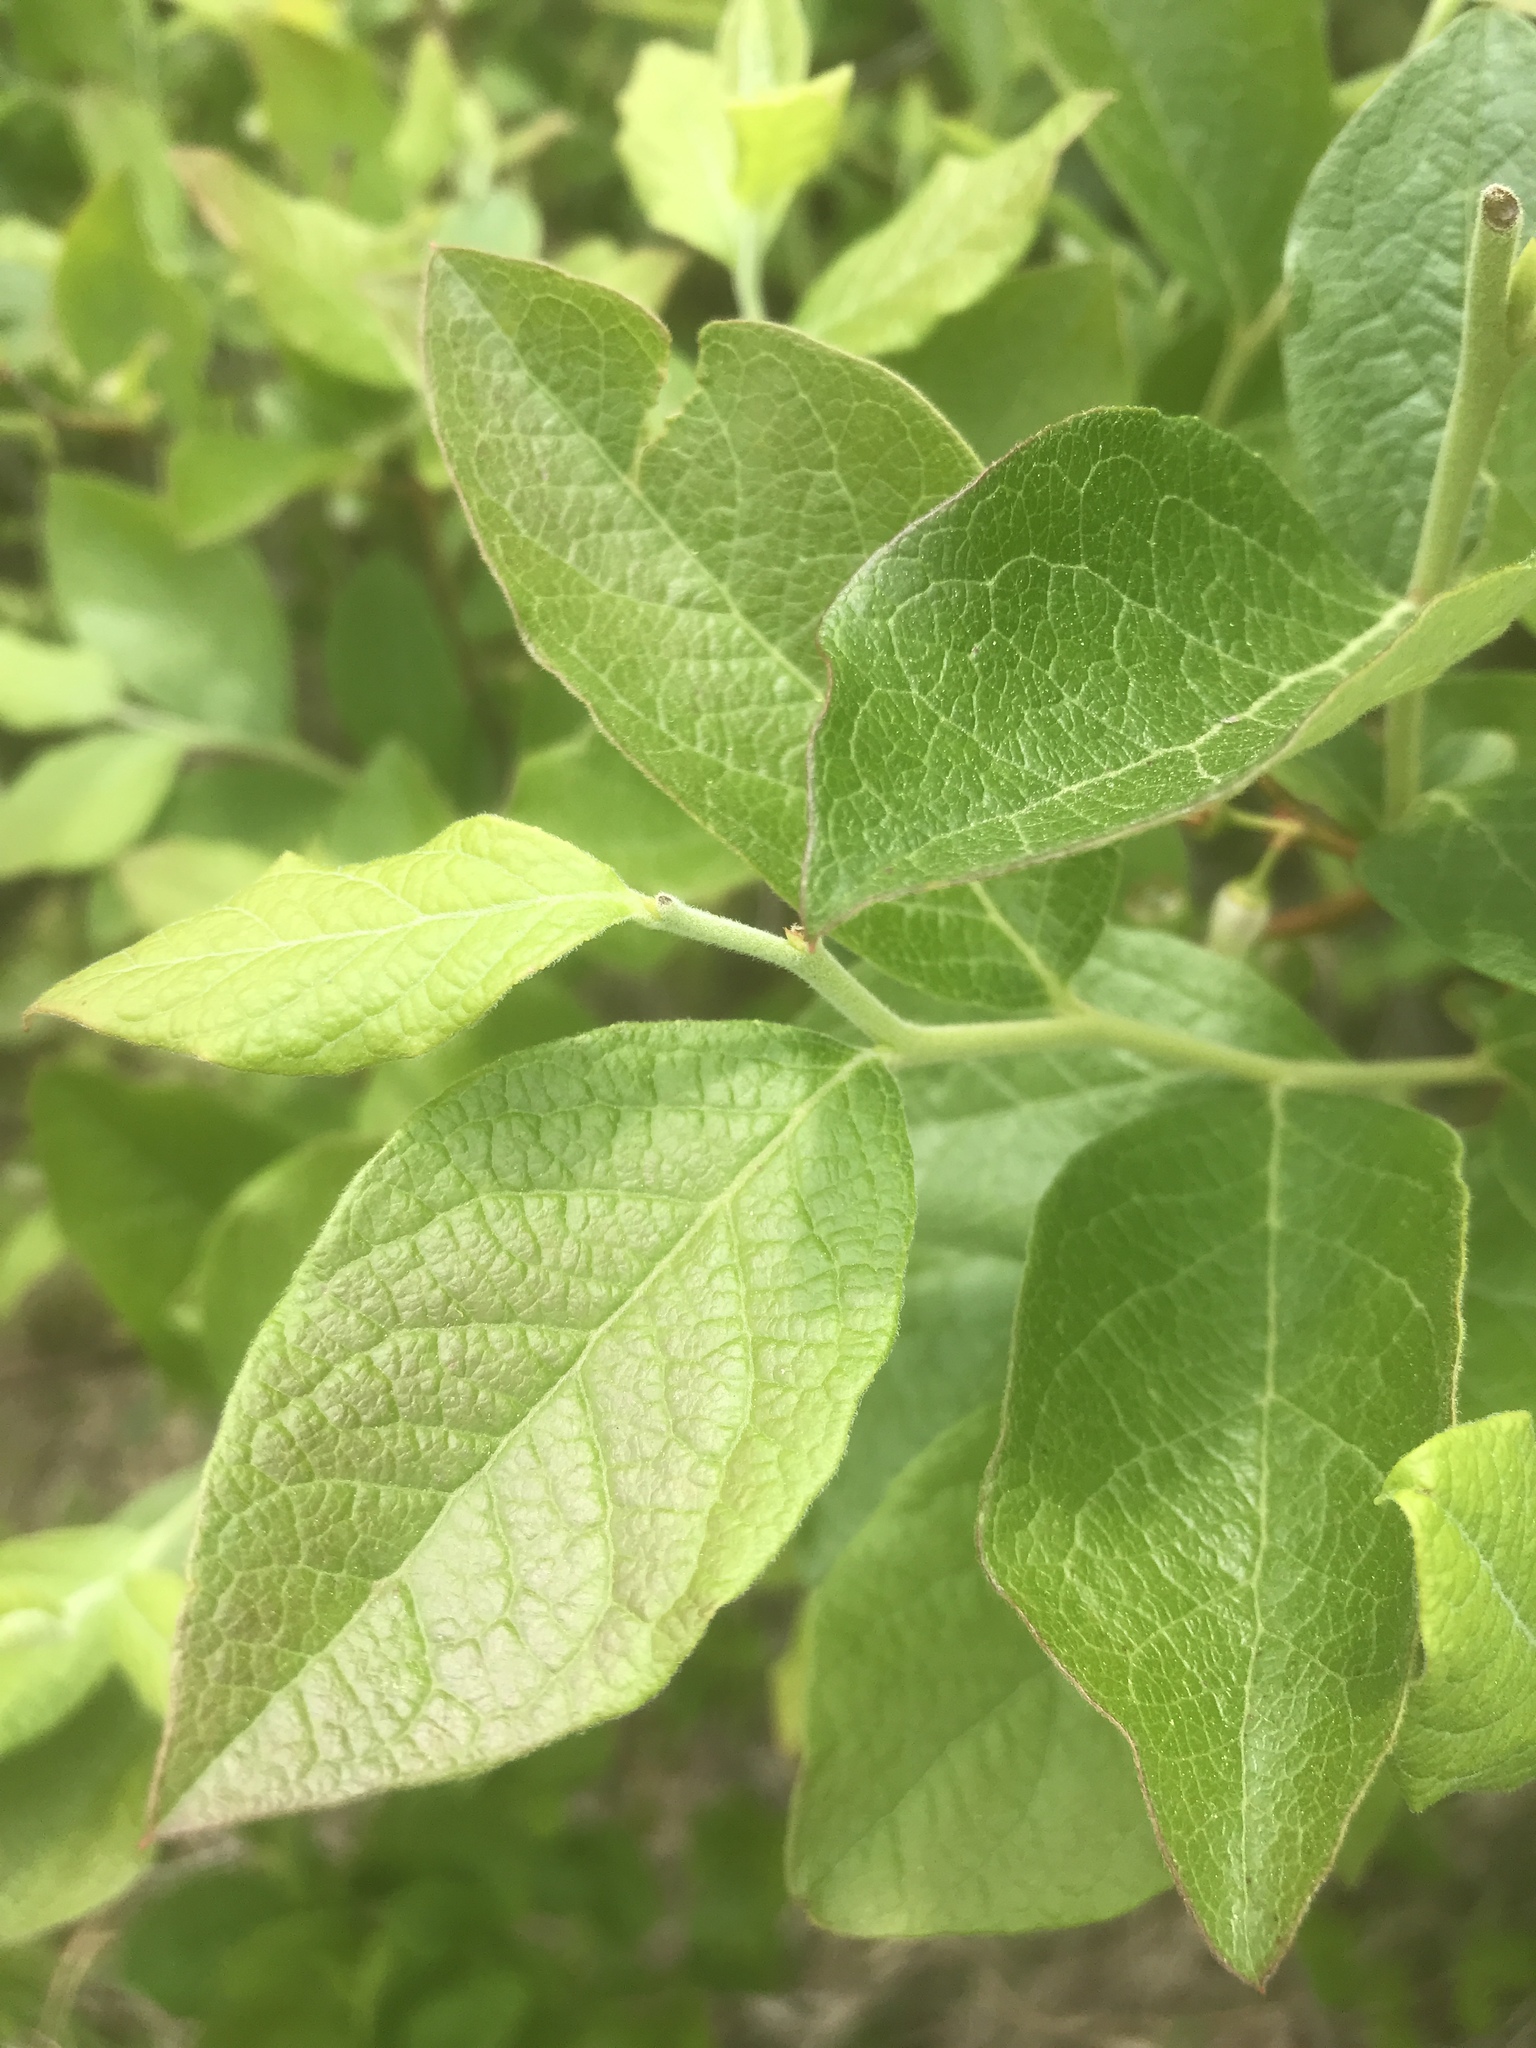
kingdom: Plantae
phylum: Tracheophyta
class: Magnoliopsida
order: Ericales
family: Ericaceae
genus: Vaccinium
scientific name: Vaccinium corymbosum
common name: Blueberry
